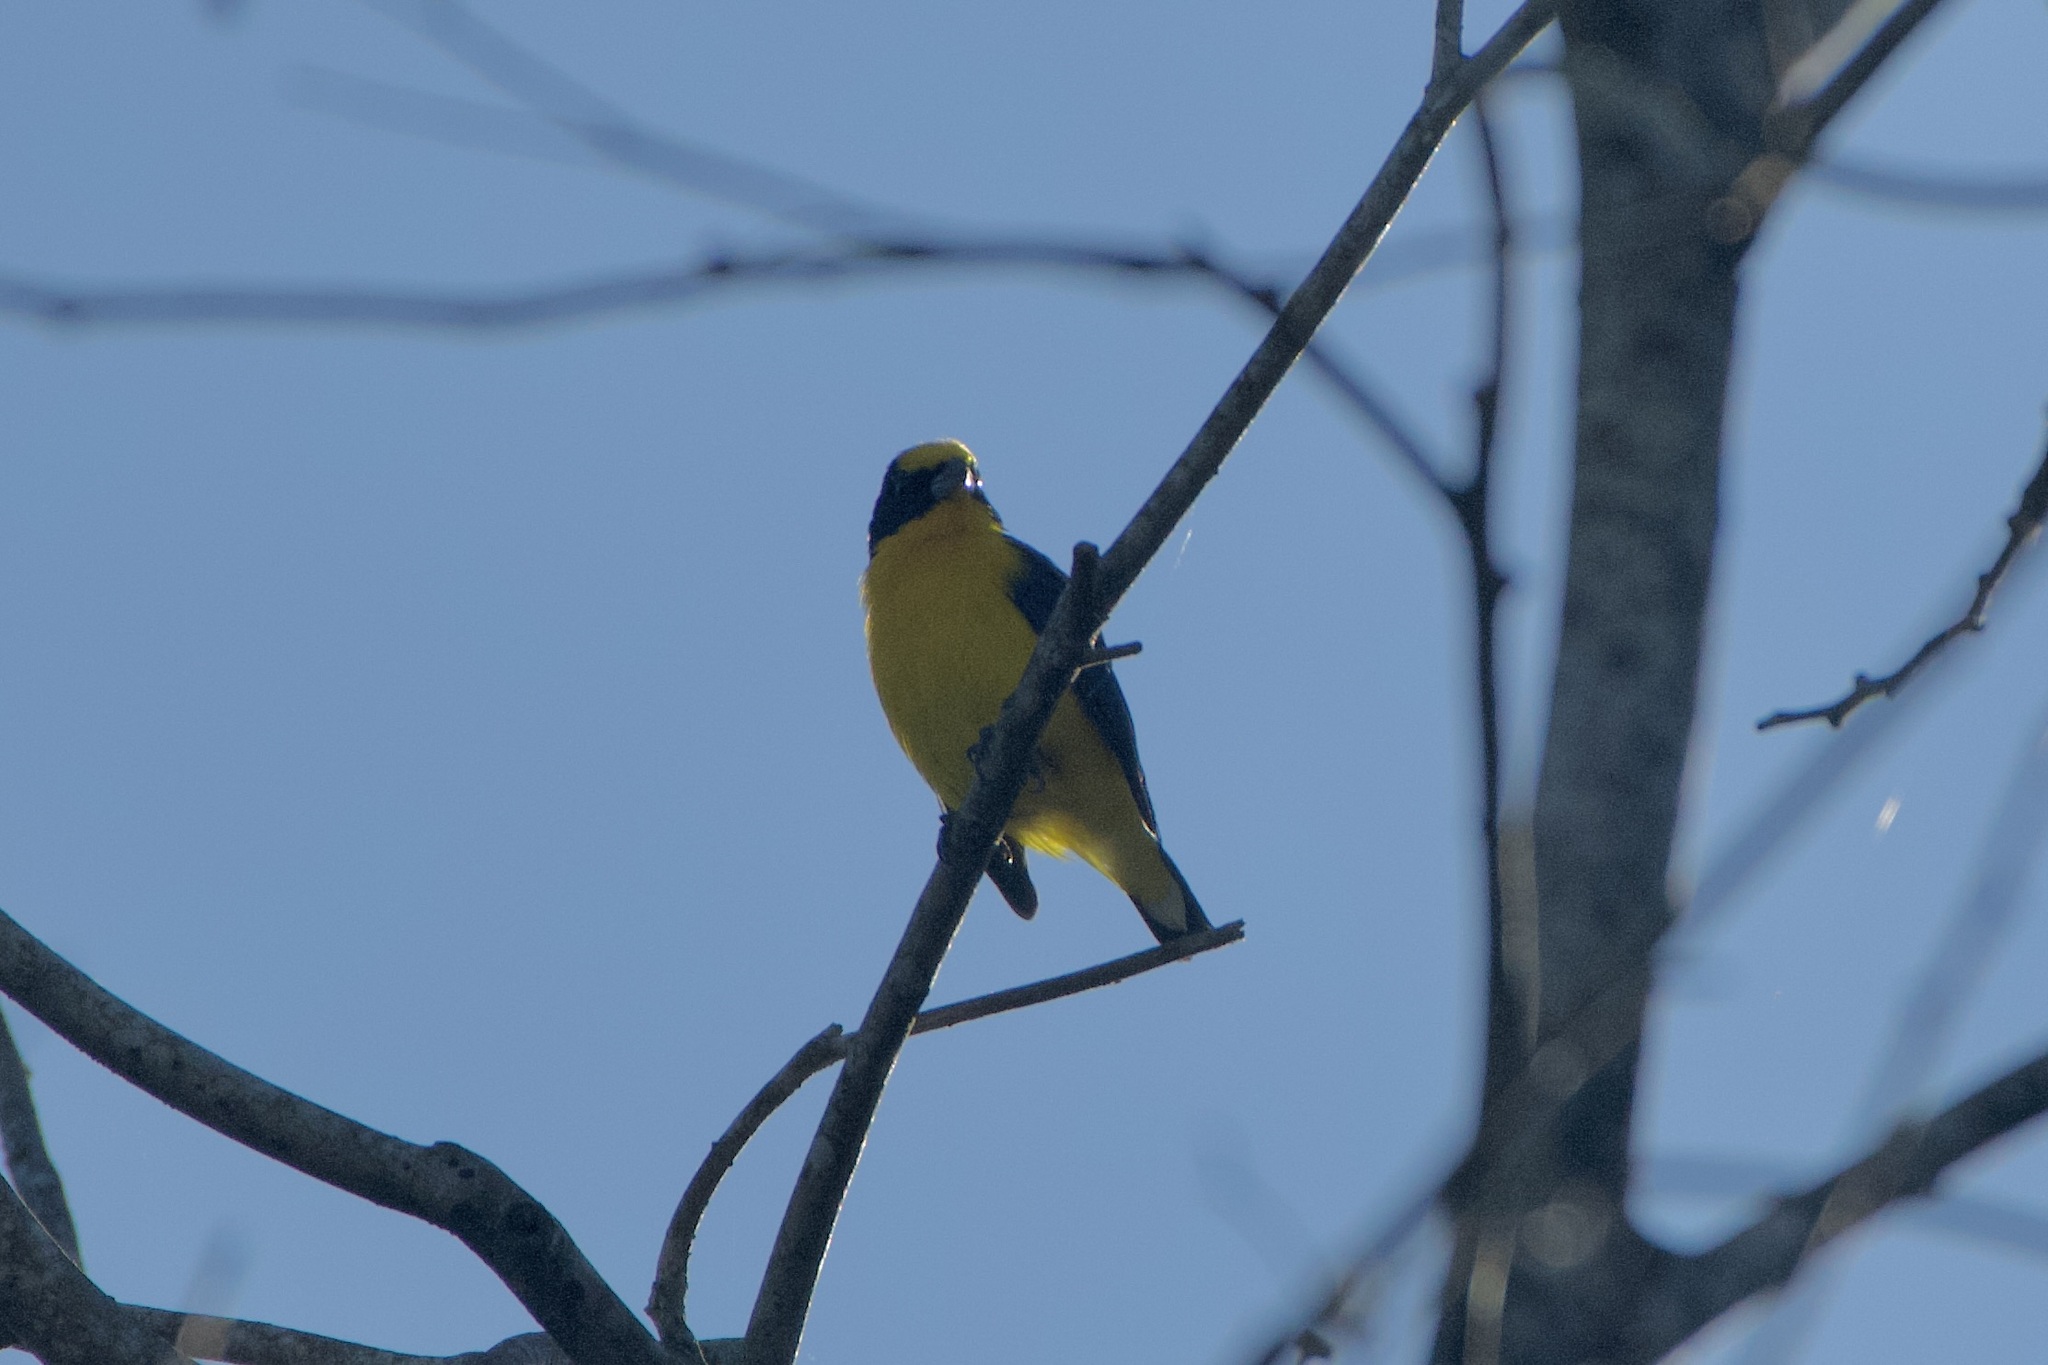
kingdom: Animalia
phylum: Chordata
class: Aves
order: Passeriformes
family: Fringillidae
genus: Euphonia
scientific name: Euphonia laniirostris
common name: Thick-billed euphonia
